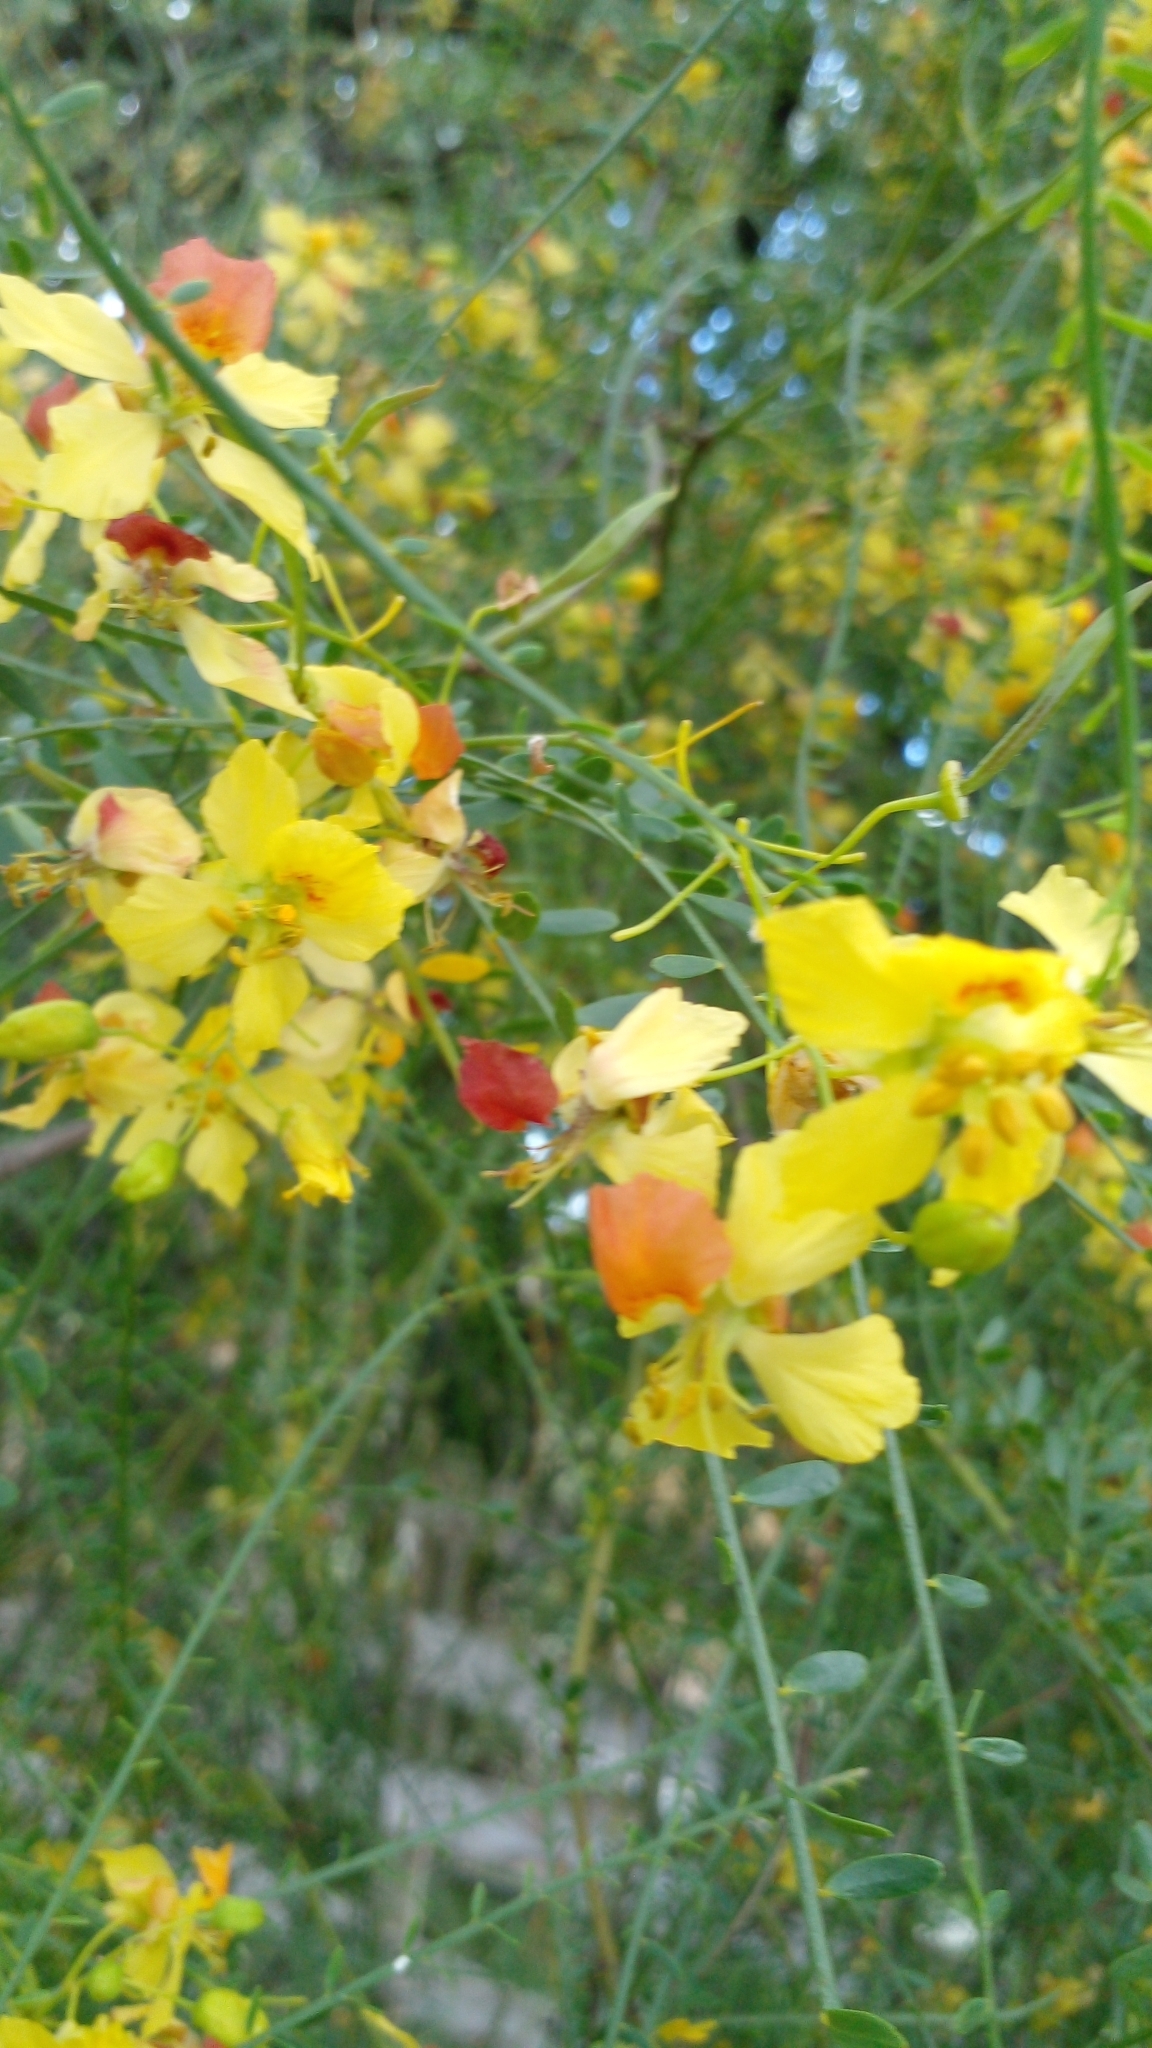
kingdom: Plantae
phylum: Tracheophyta
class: Magnoliopsida
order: Fabales
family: Fabaceae
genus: Parkinsonia
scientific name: Parkinsonia aculeata
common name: Jerusalem thorn
